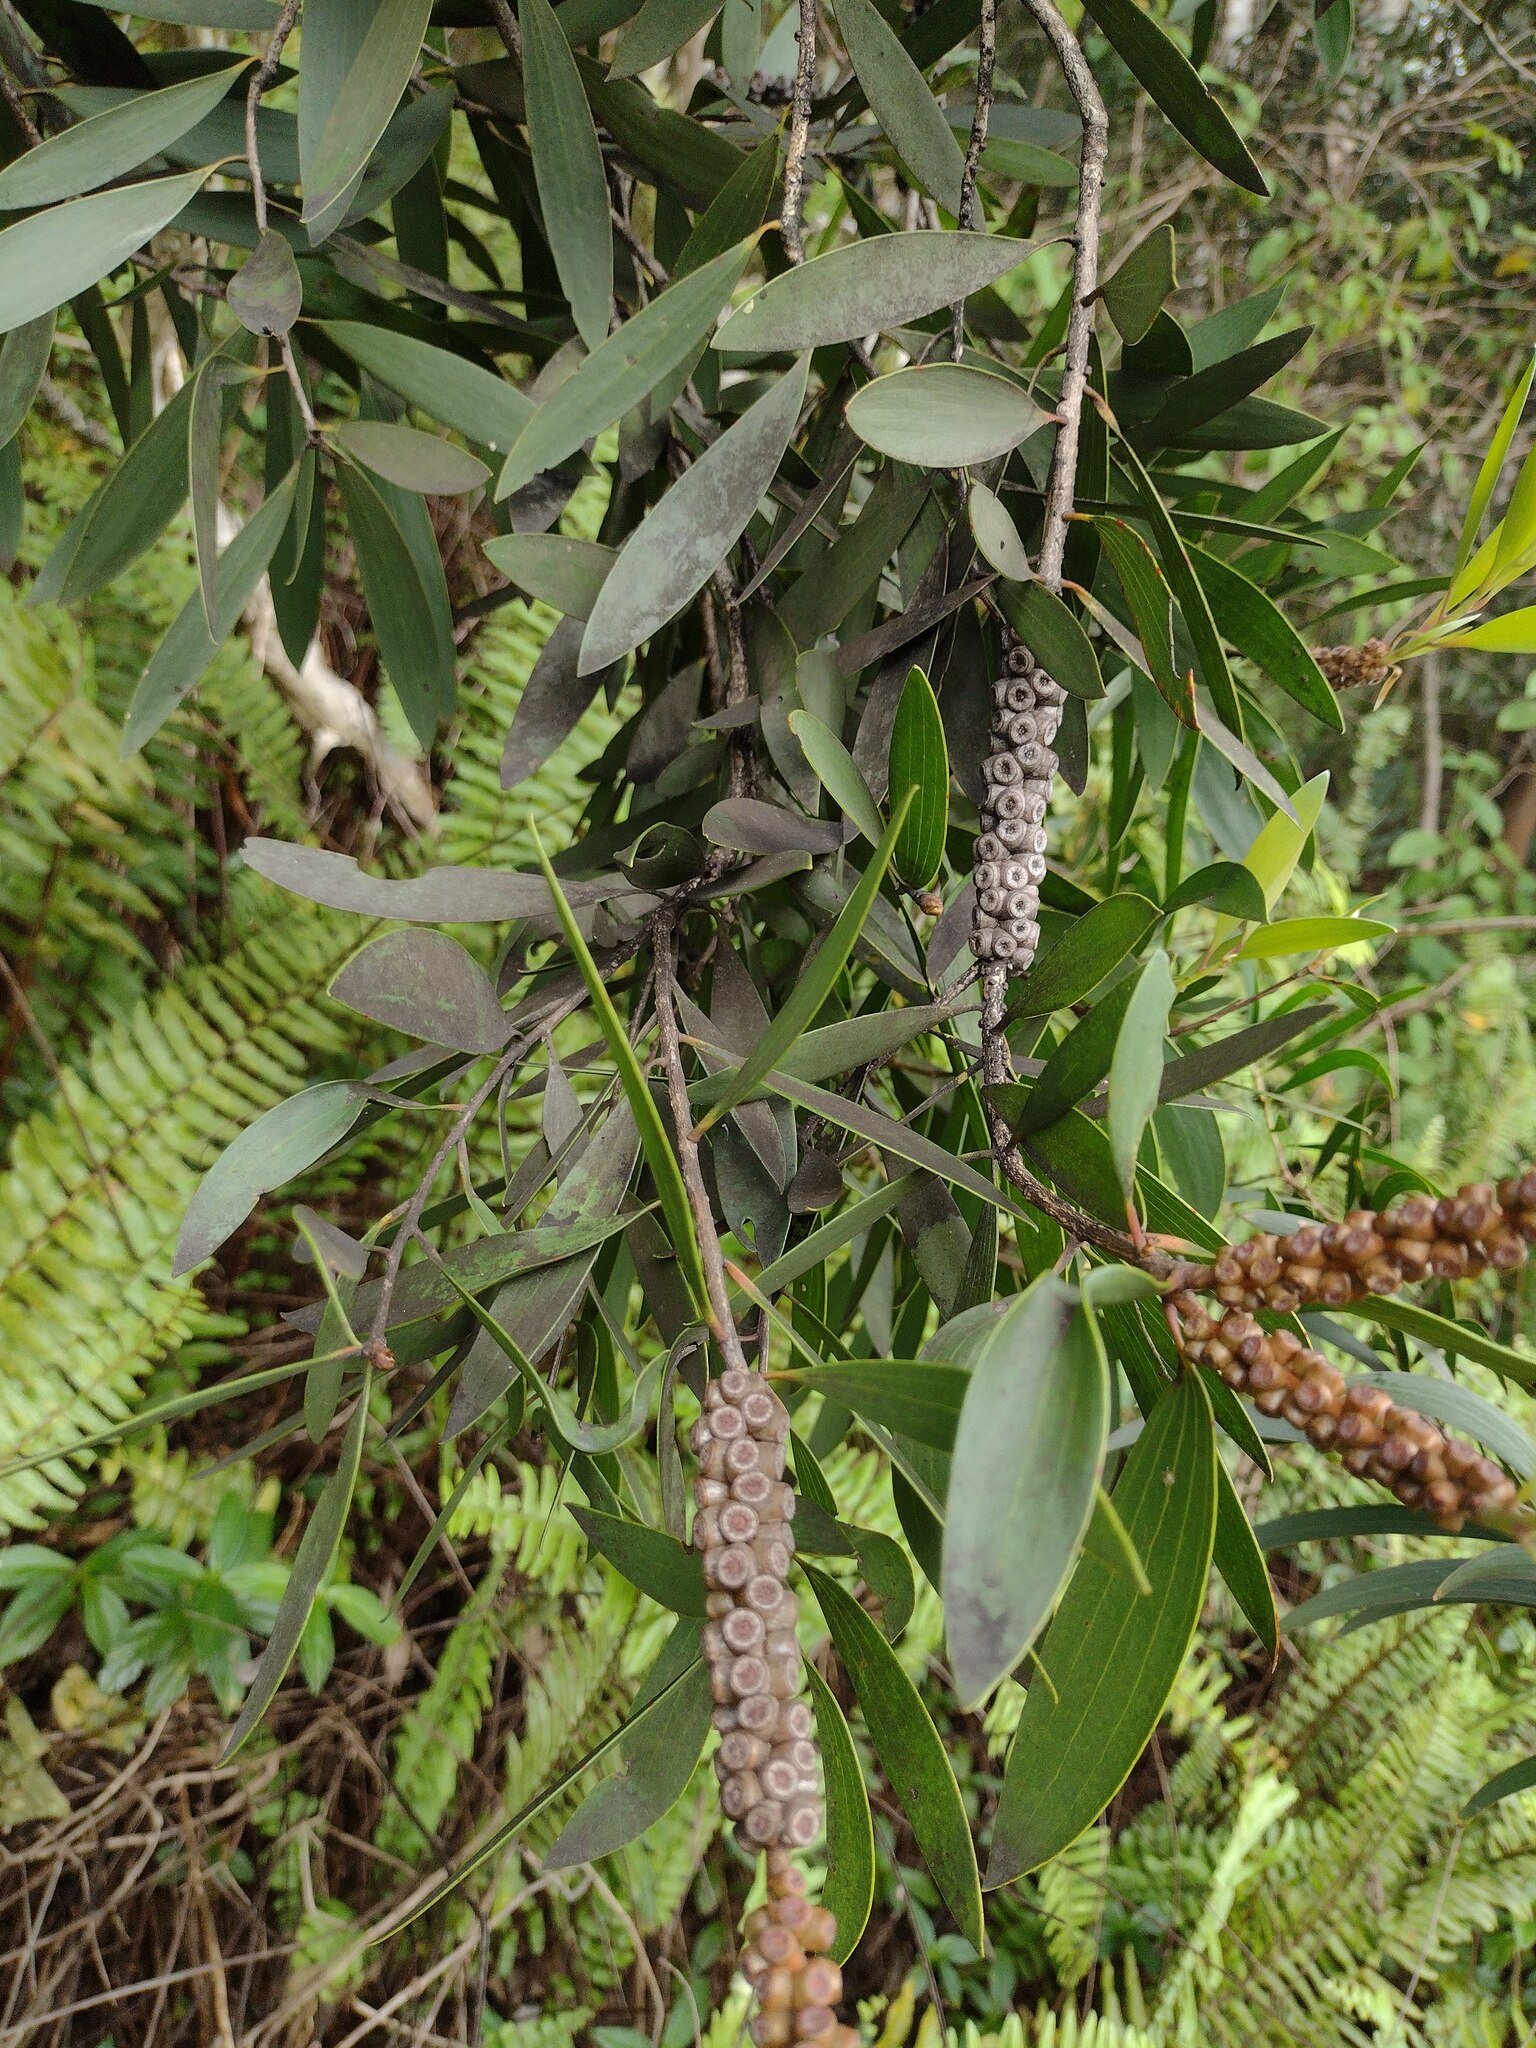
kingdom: Plantae
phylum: Tracheophyta
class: Magnoliopsida
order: Myrtales
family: Myrtaceae
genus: Melaleuca
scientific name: Melaleuca quinquenervia
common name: Punktree
